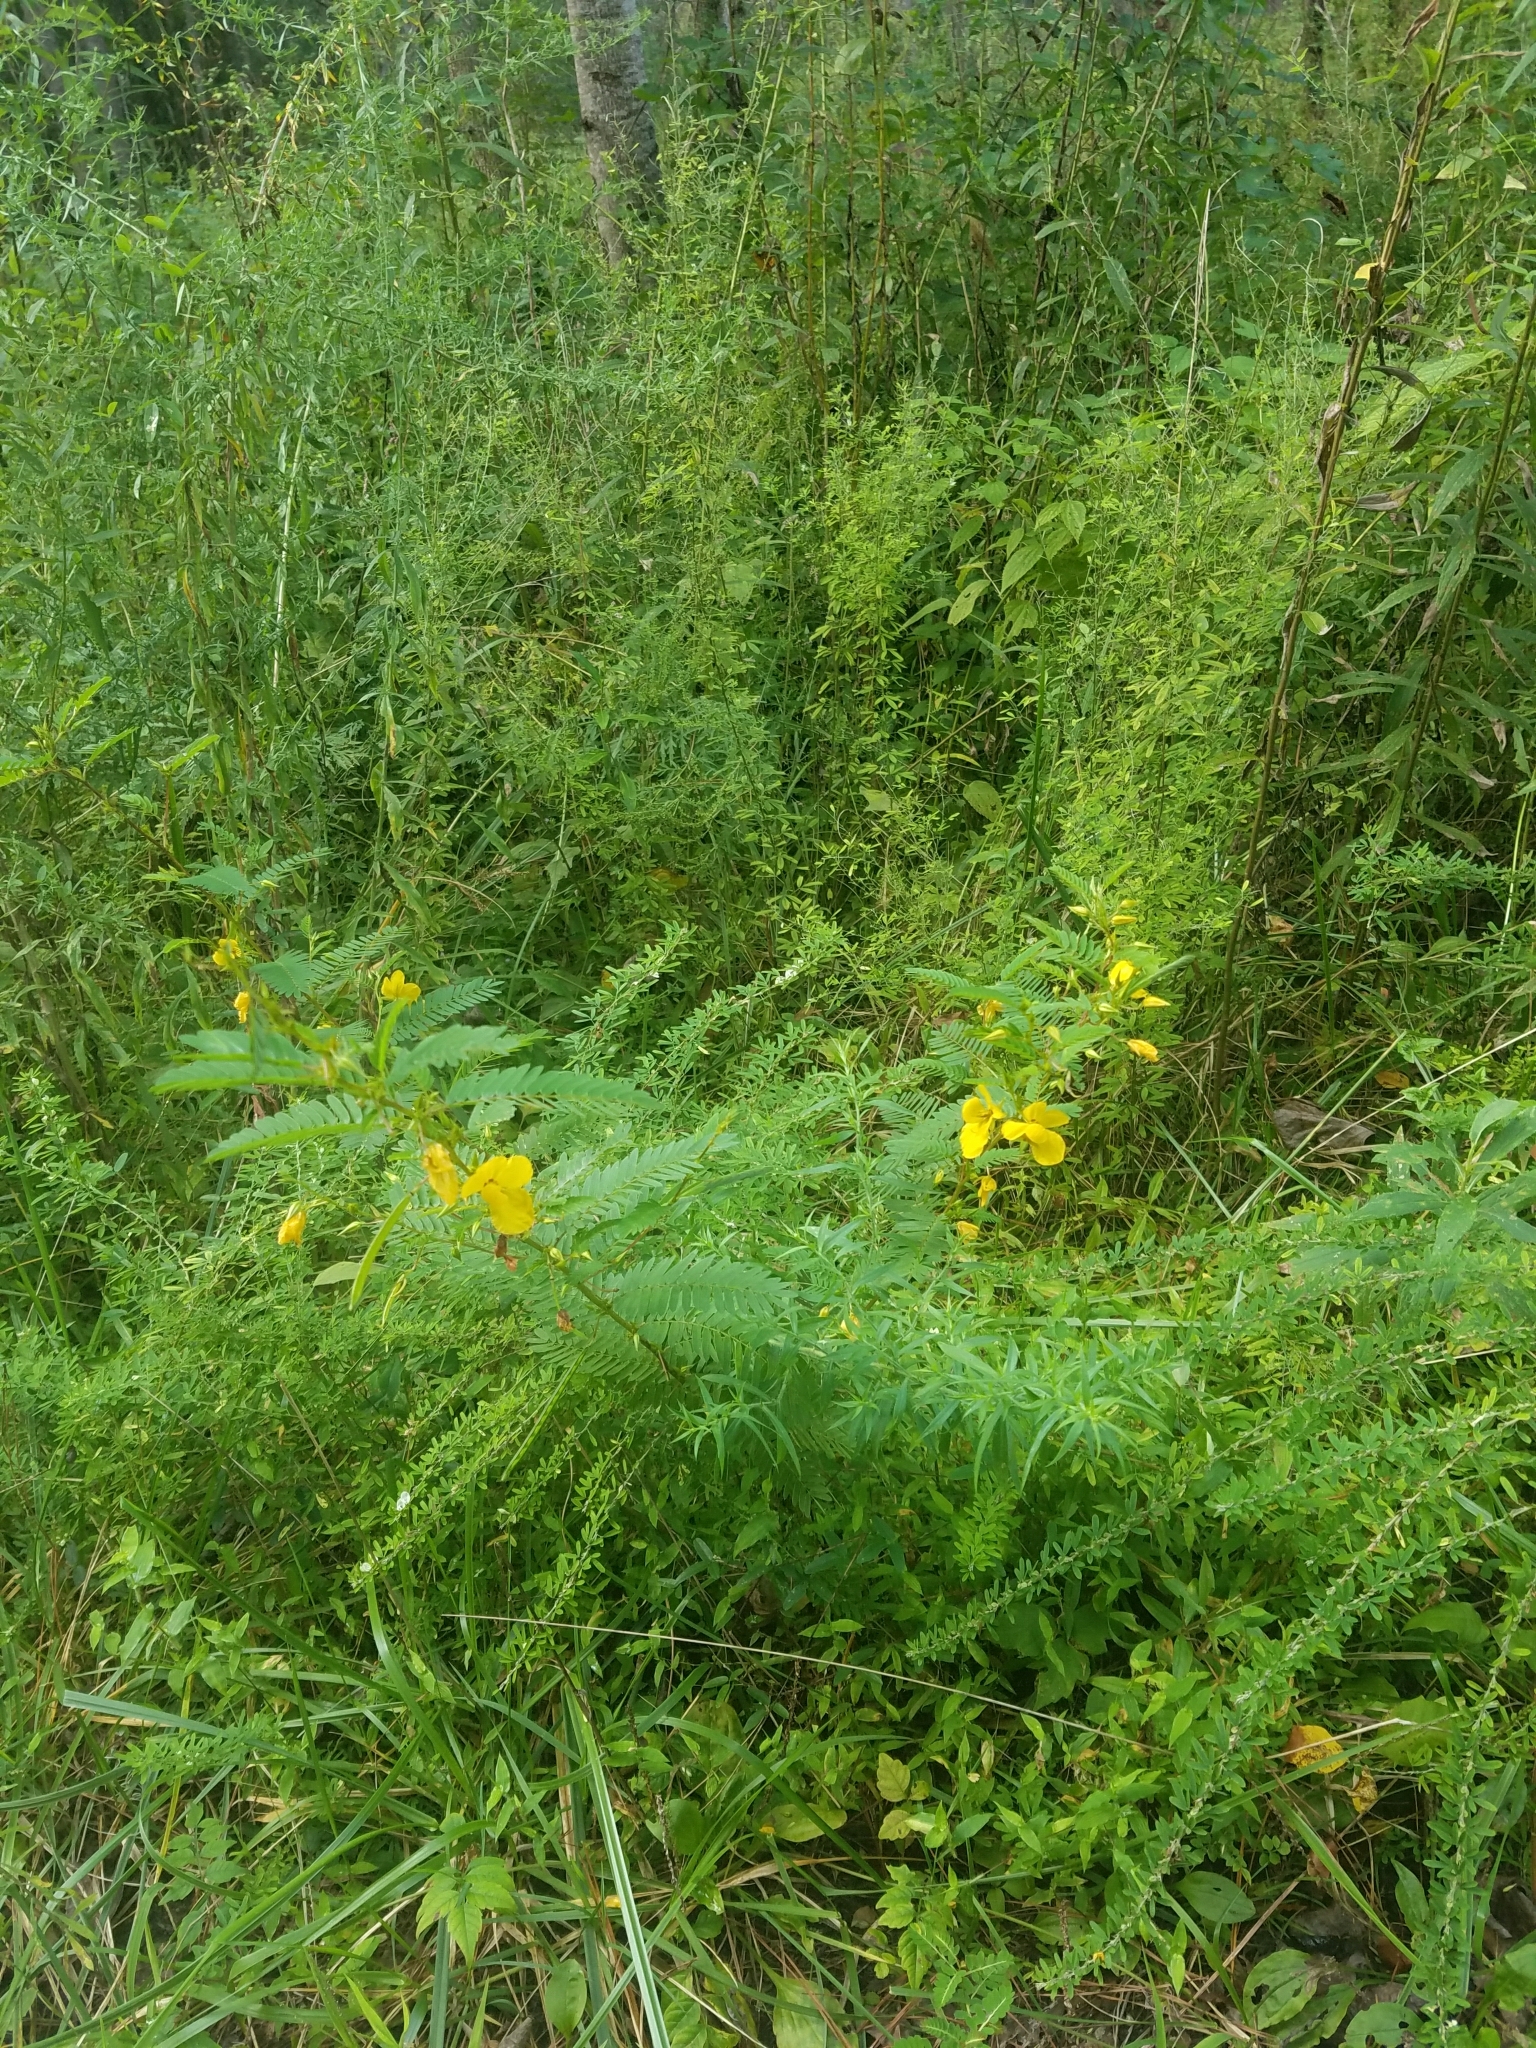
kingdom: Plantae
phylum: Tracheophyta
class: Magnoliopsida
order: Fabales
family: Fabaceae
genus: Chamaecrista
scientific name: Chamaecrista fasciculata
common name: Golden cassia
